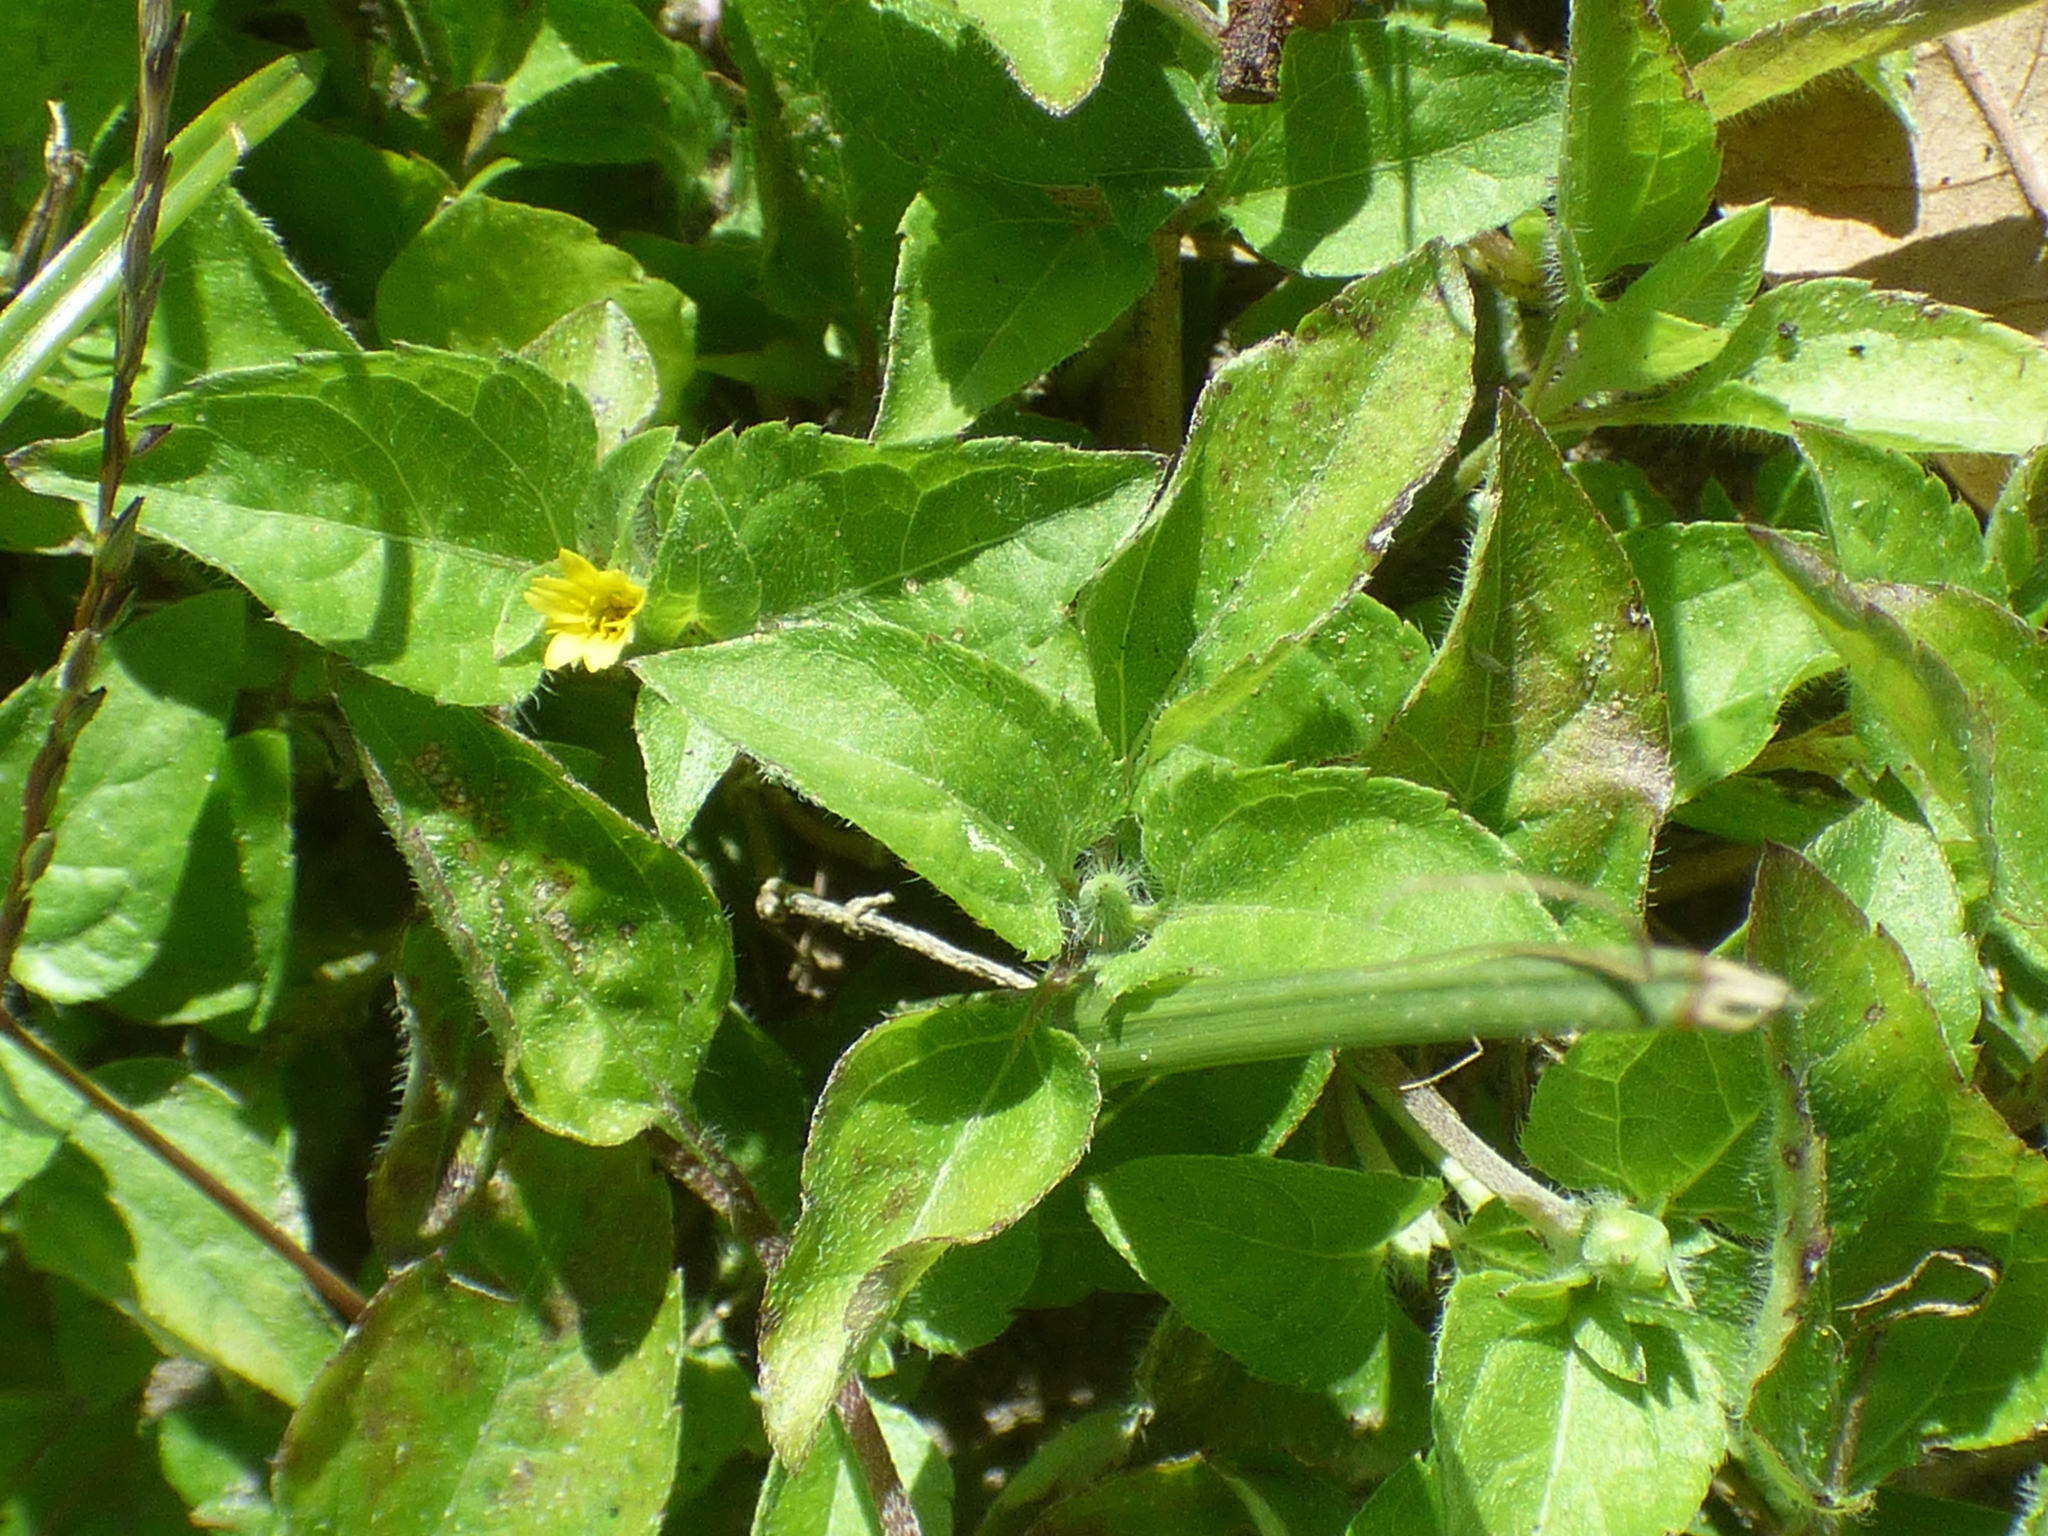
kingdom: Plantae
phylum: Tracheophyta
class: Magnoliopsida
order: Asterales
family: Asteraceae
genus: Calyptocarpus
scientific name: Calyptocarpus vialis
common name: Straggler daisy
